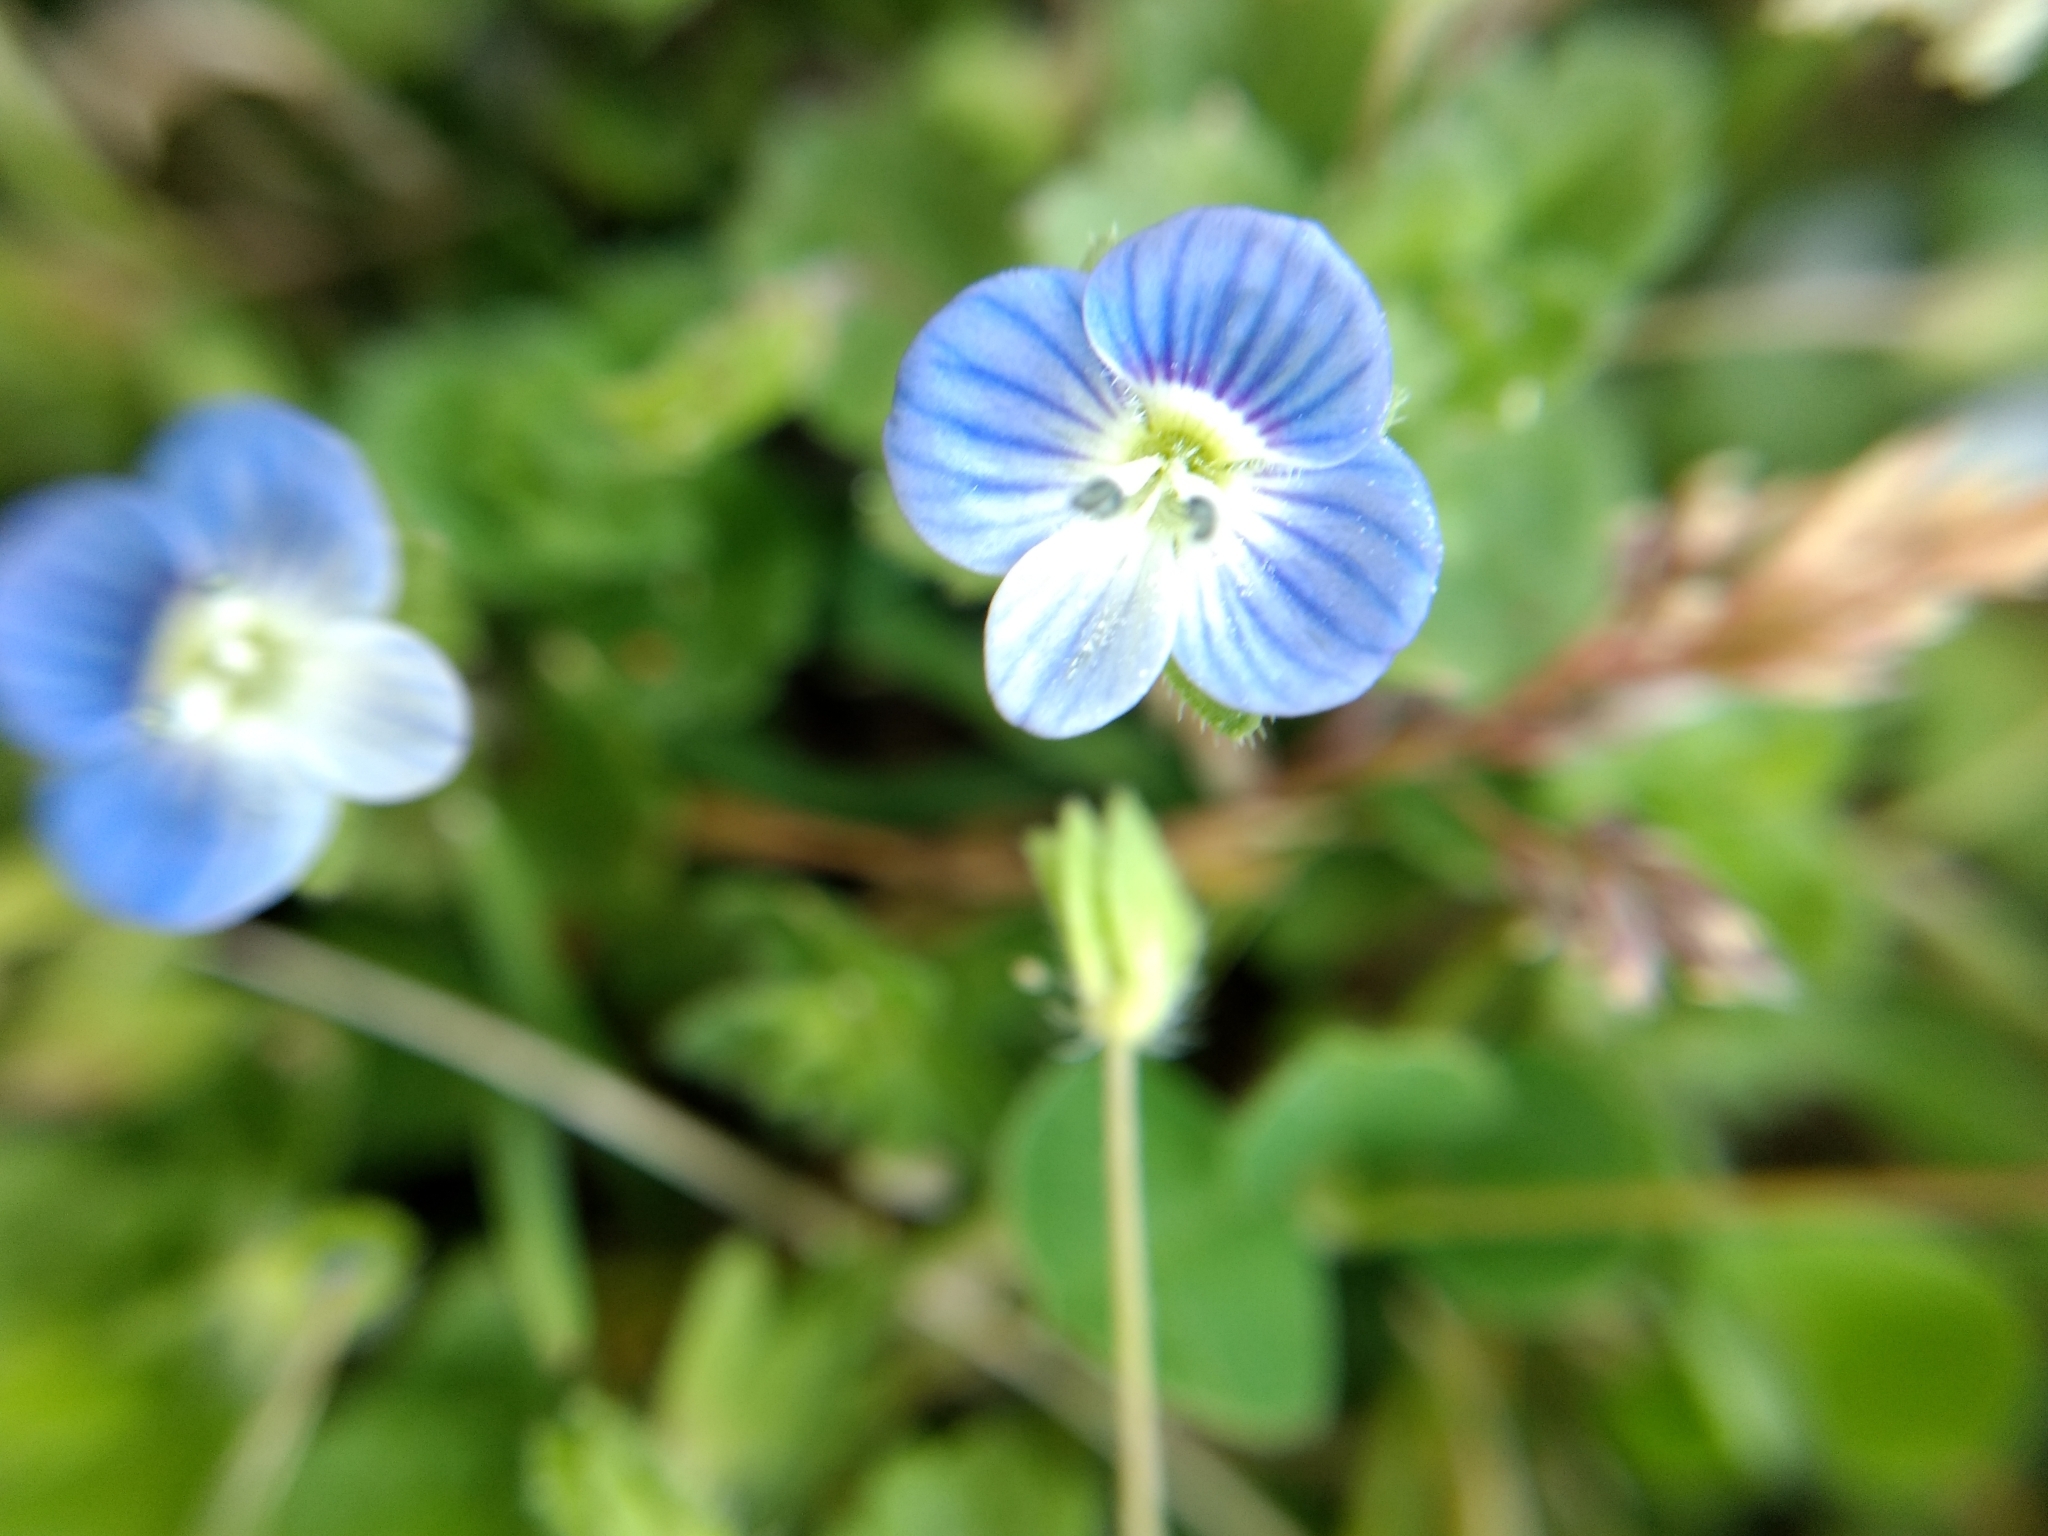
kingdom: Plantae
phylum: Tracheophyta
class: Magnoliopsida
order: Lamiales
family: Plantaginaceae
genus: Veronica
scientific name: Veronica persica
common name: Common field-speedwell
